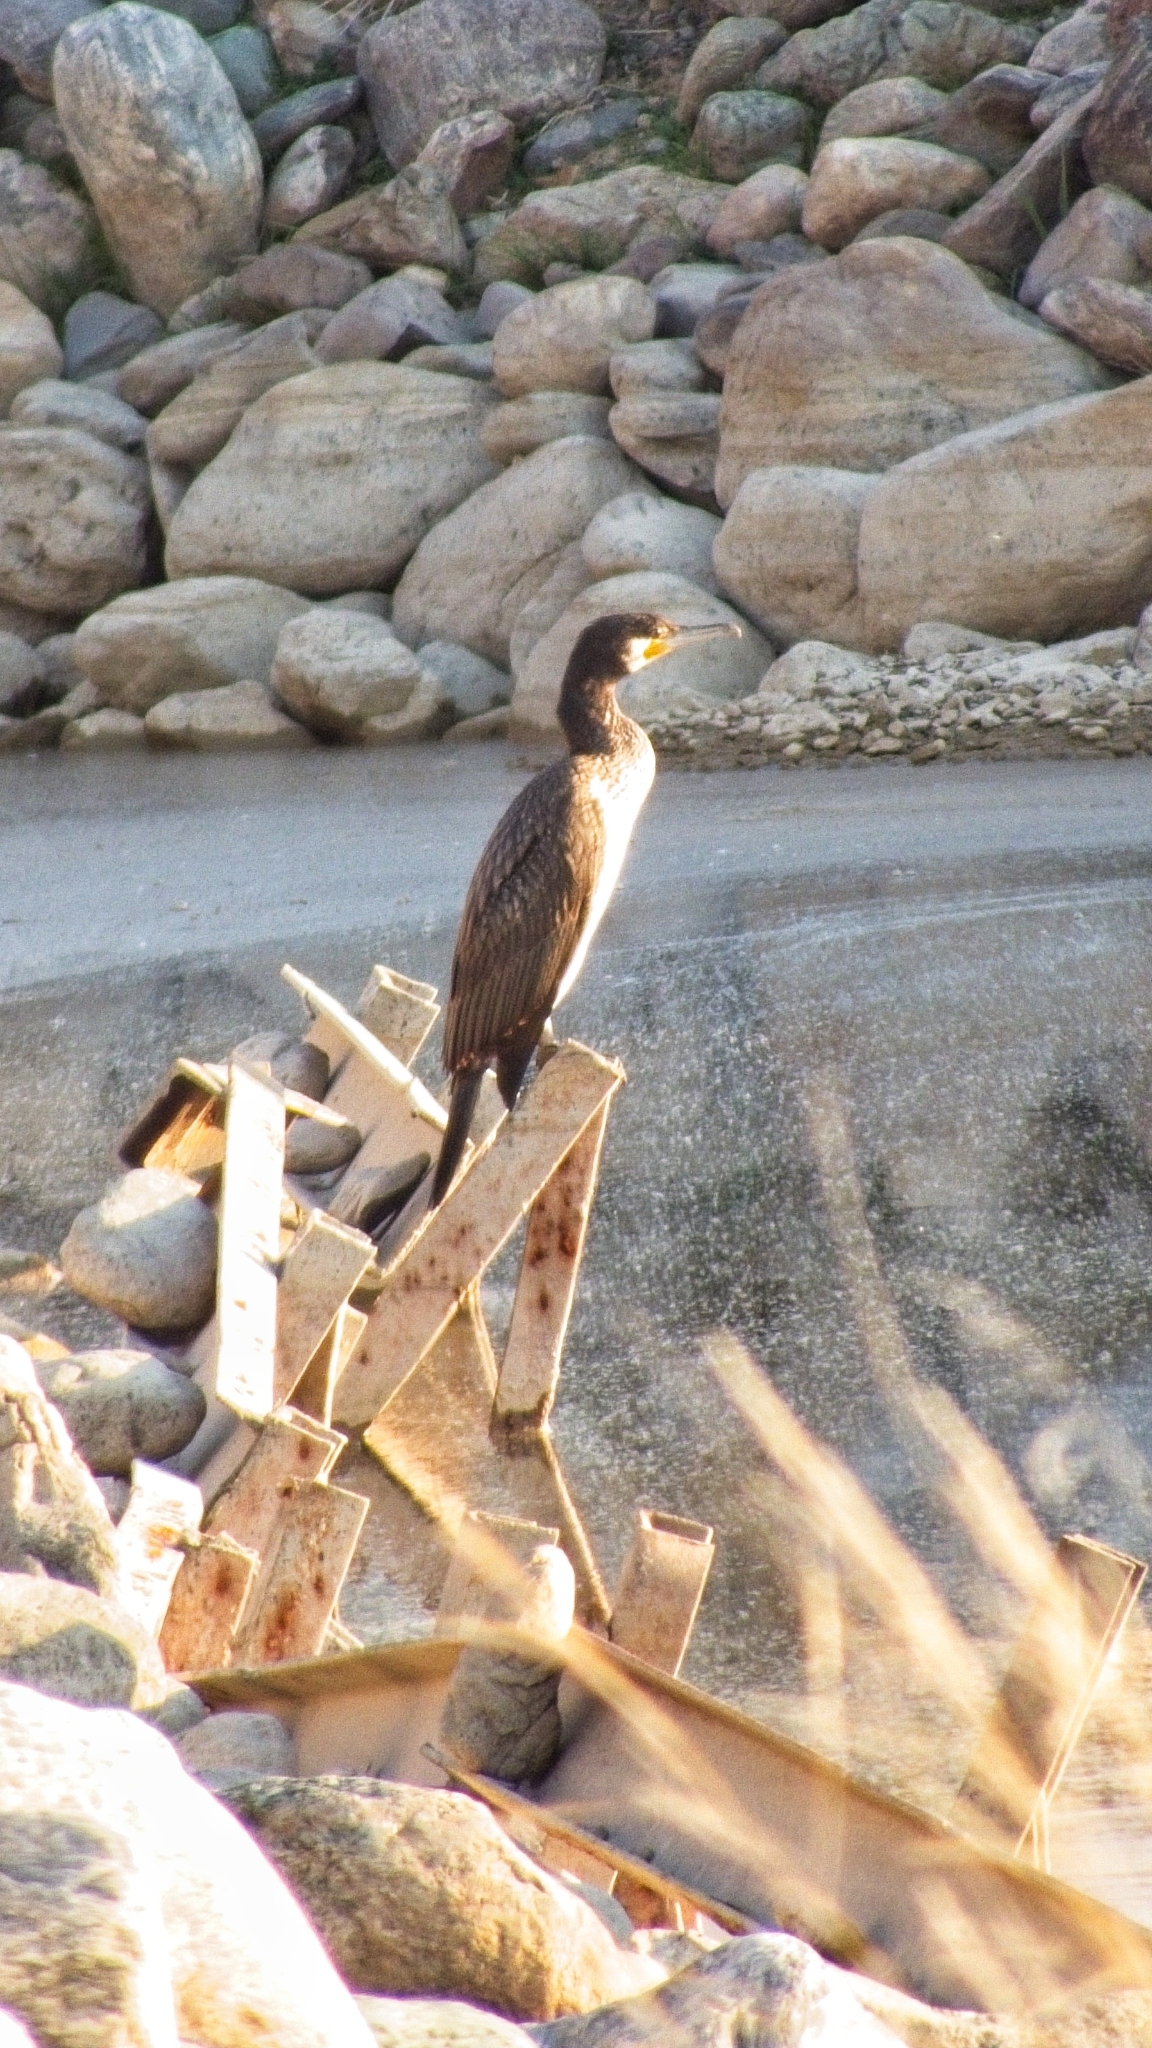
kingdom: Animalia
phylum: Chordata
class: Aves
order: Suliformes
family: Phalacrocoracidae
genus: Phalacrocorax
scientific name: Phalacrocorax carbo
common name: Great cormorant
